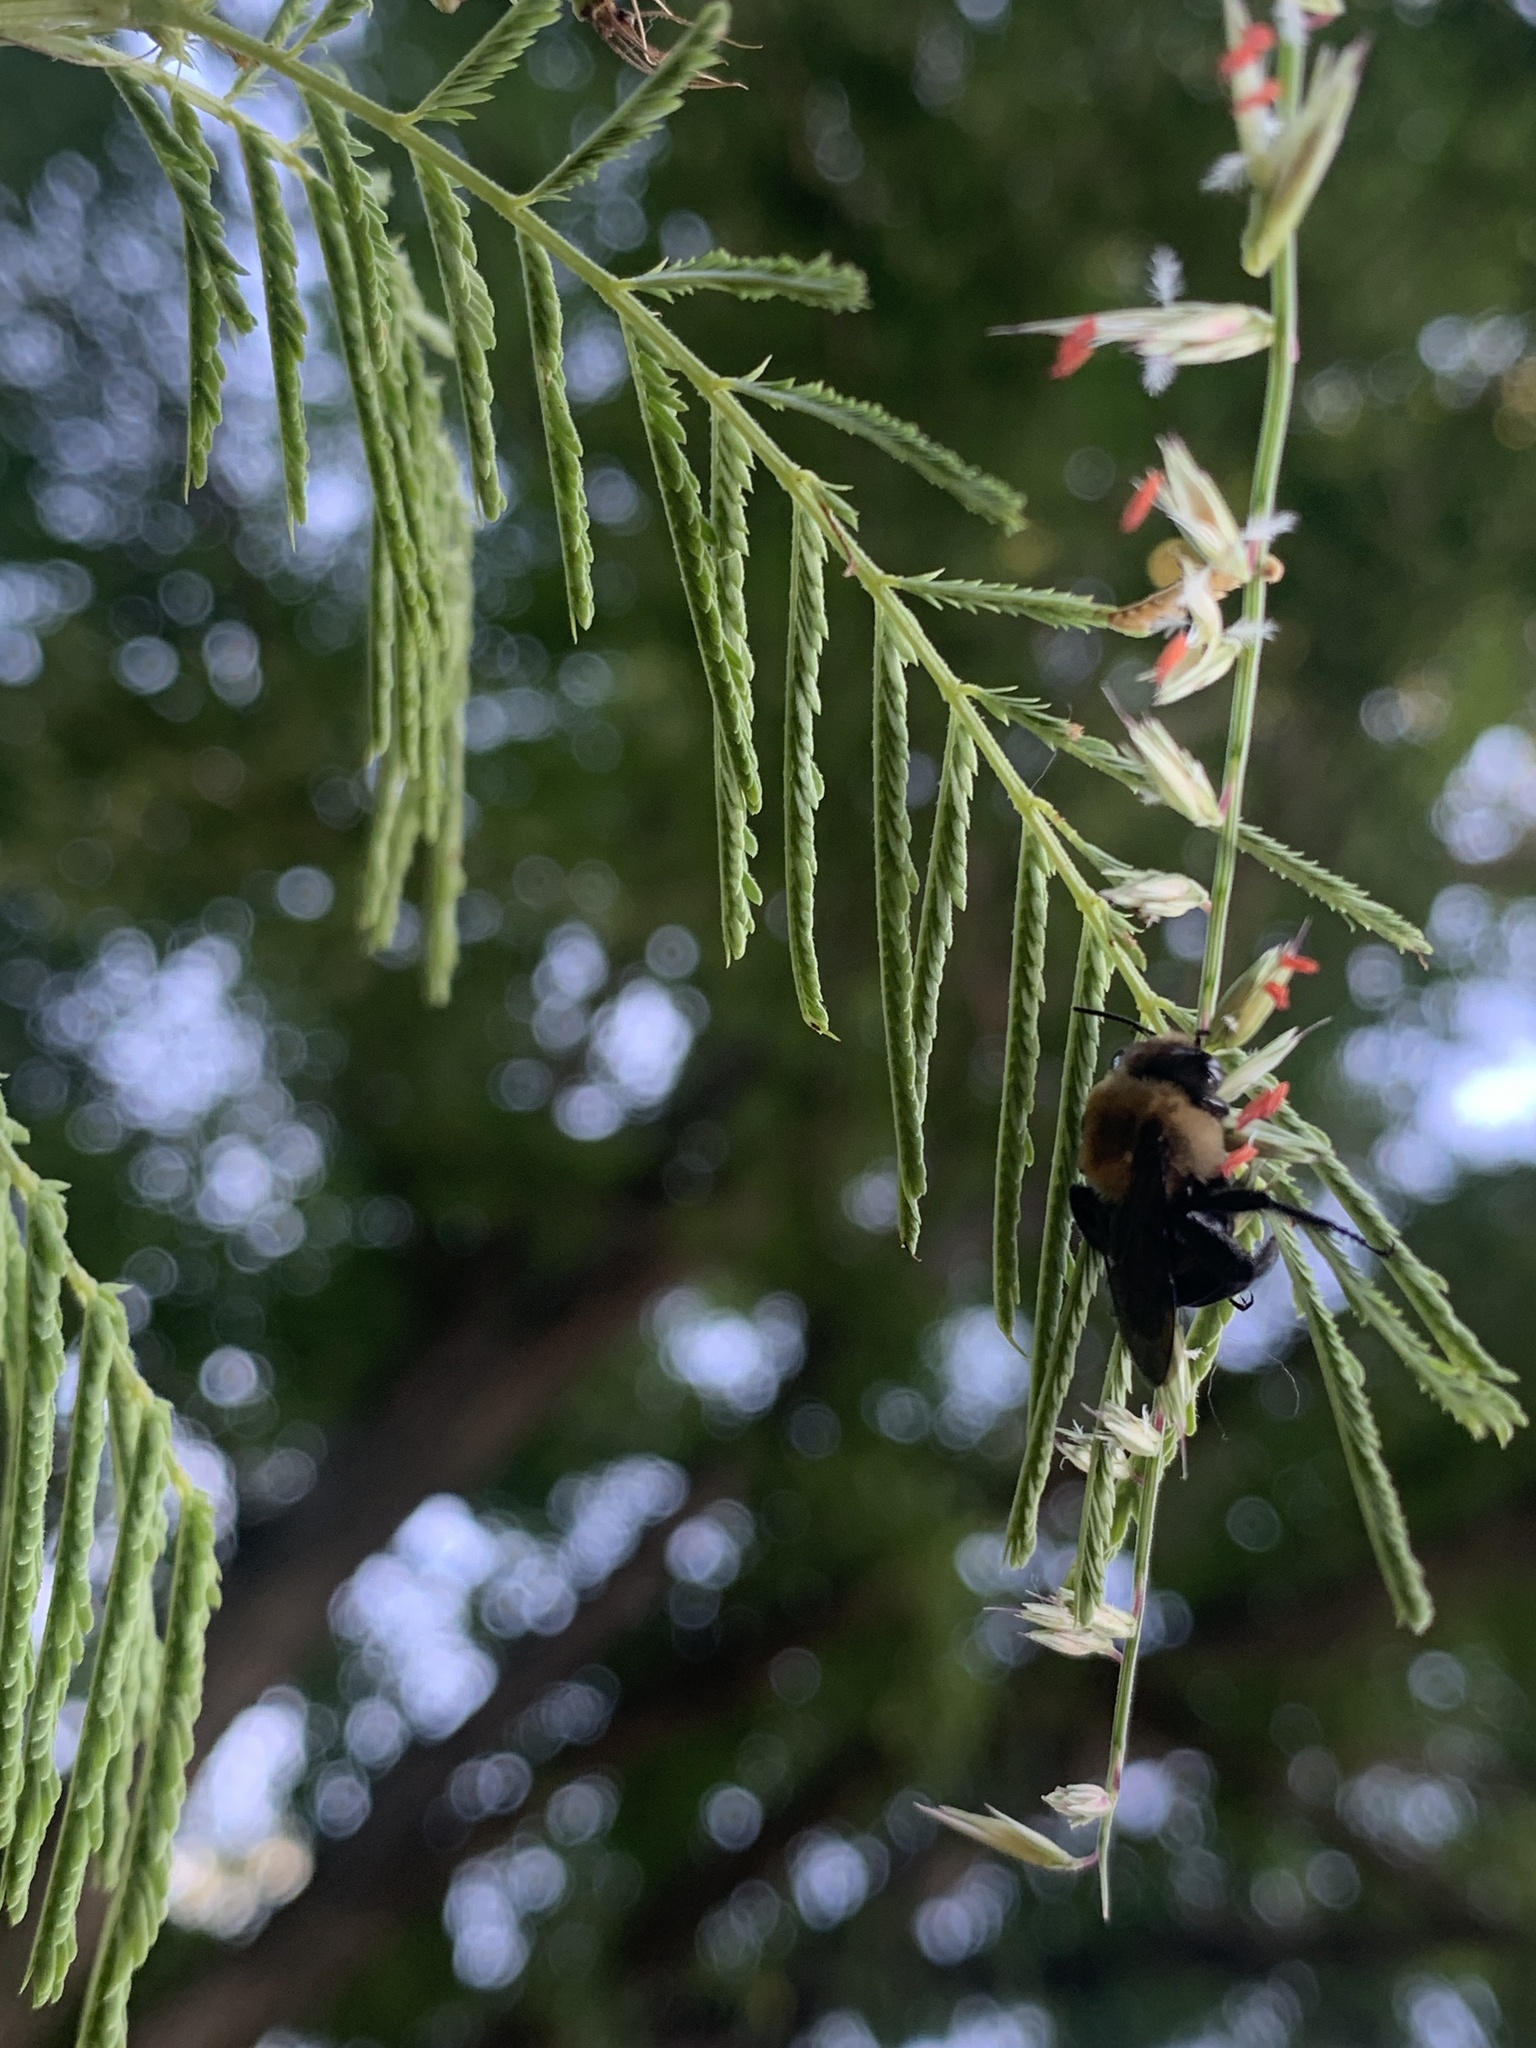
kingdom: Animalia
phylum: Arthropoda
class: Insecta
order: Hymenoptera
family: Apidae
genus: Ptilothrix
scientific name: Ptilothrix bombiformis
